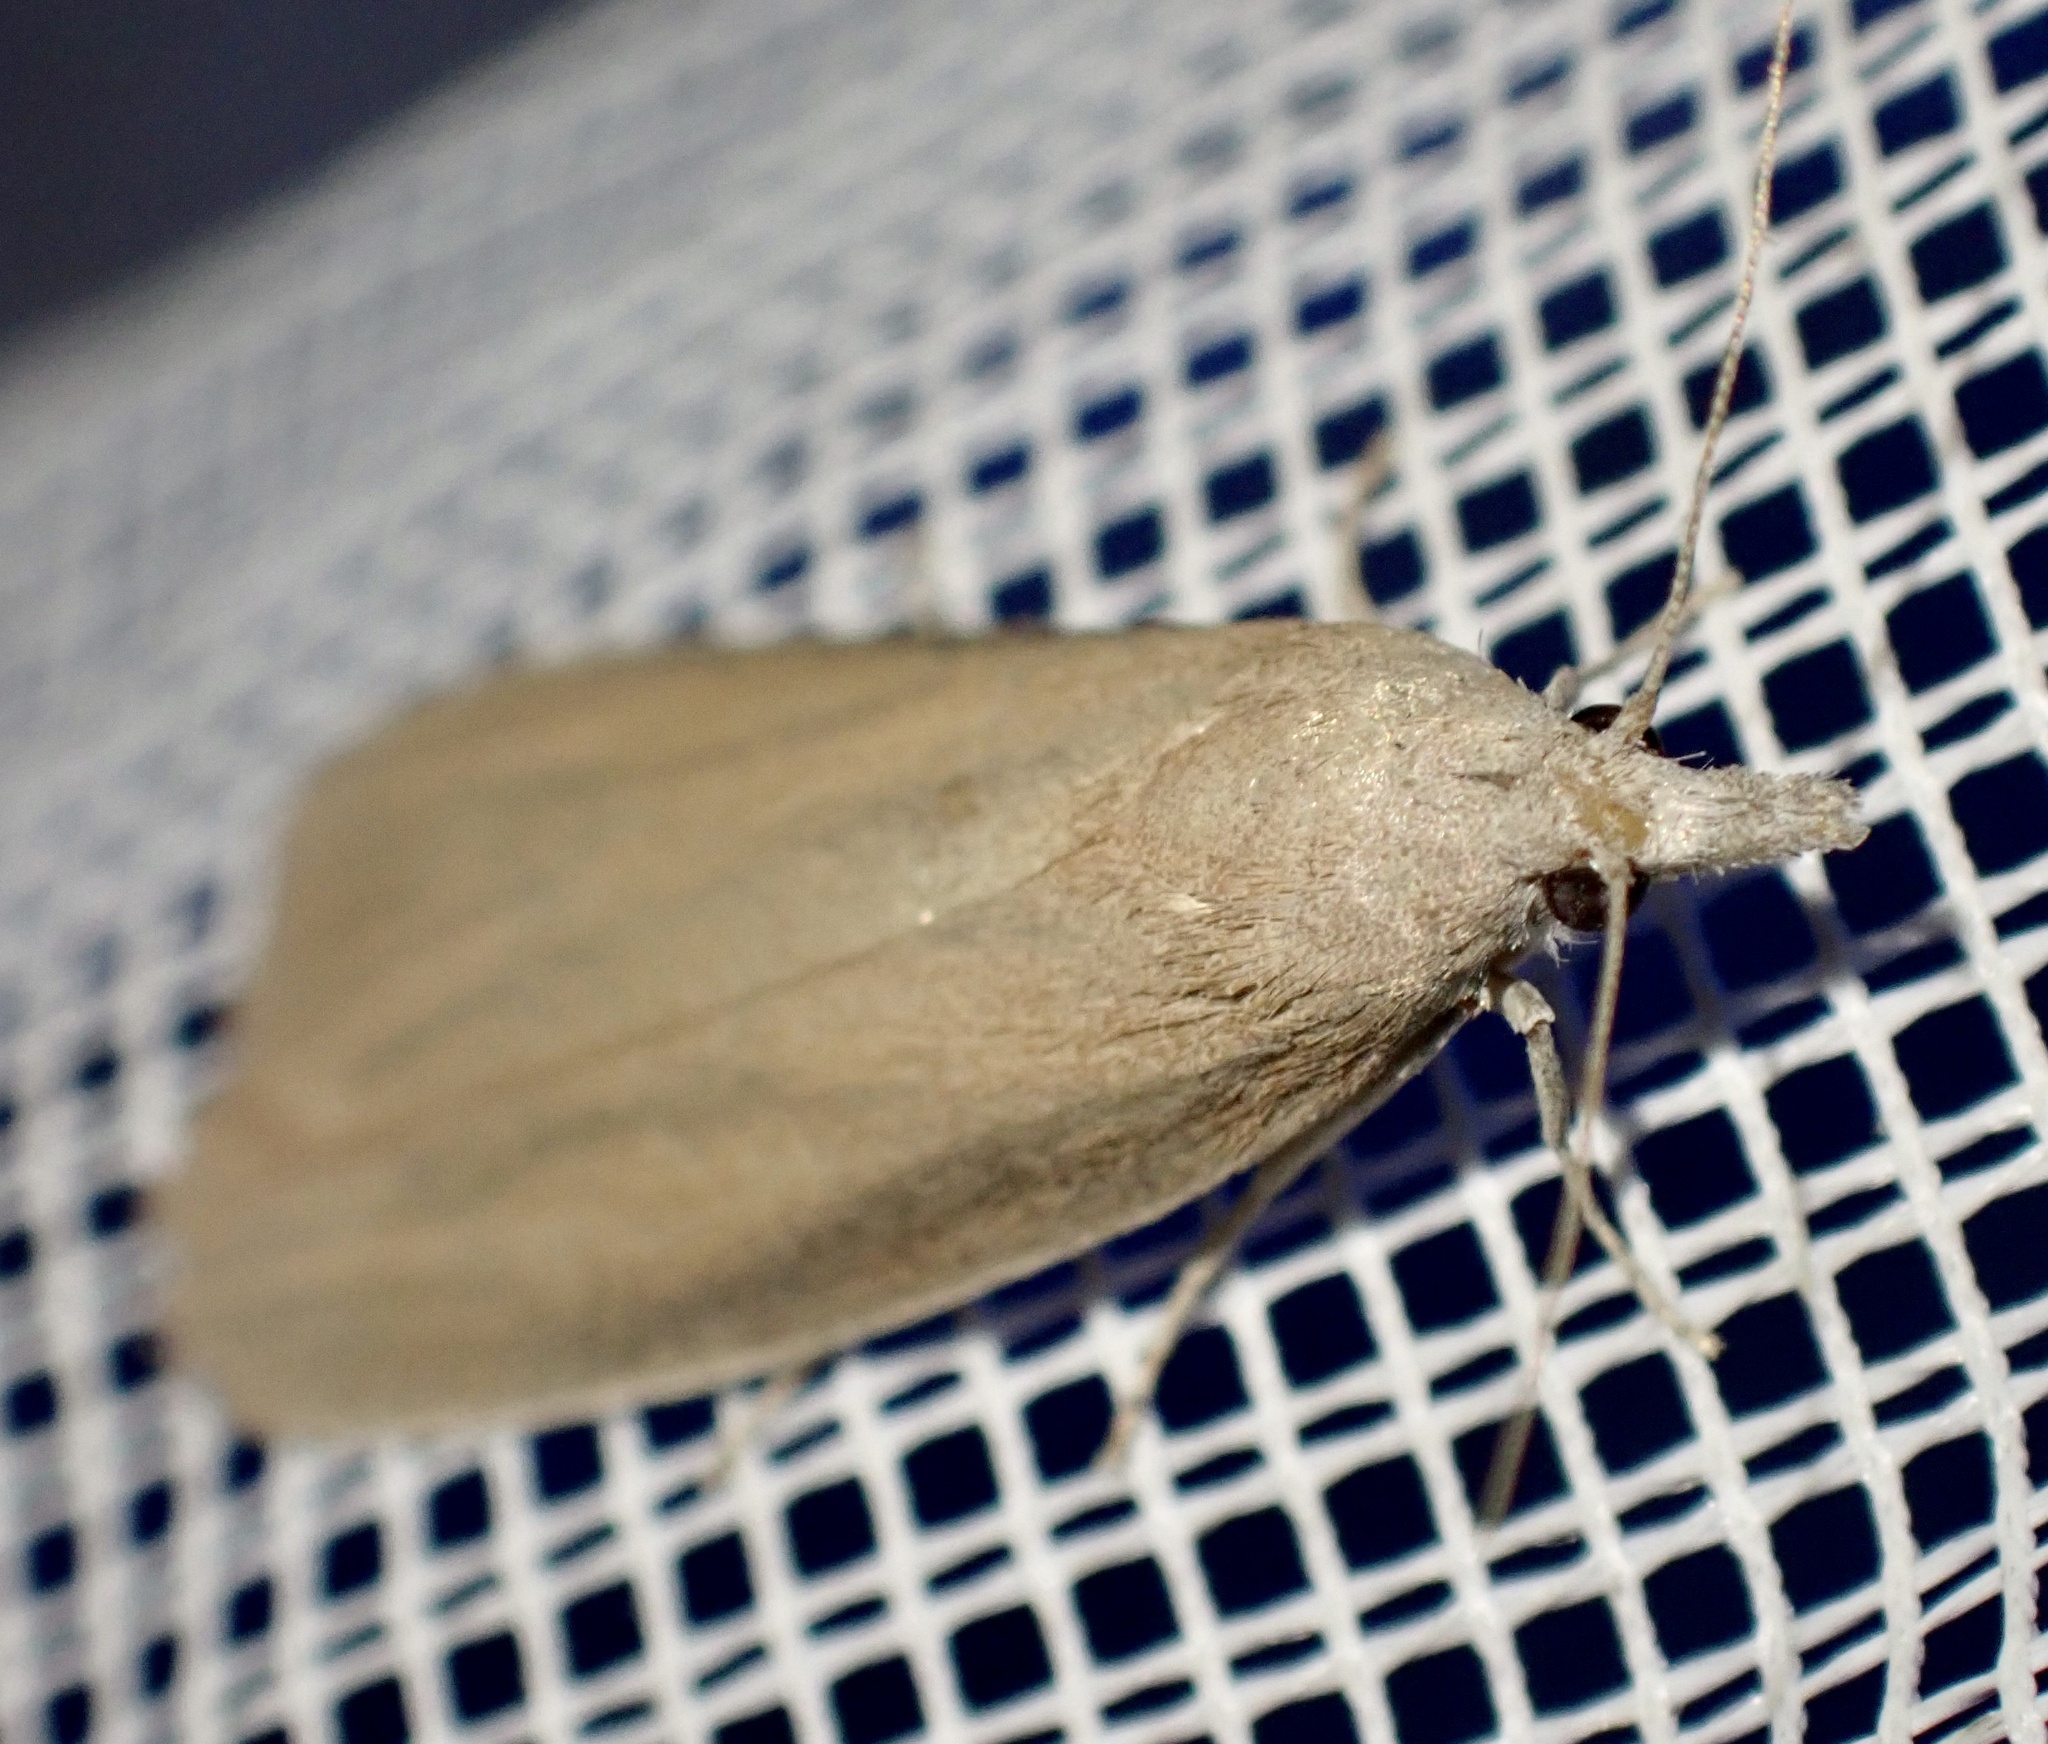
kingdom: Animalia
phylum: Arthropoda
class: Insecta
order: Lepidoptera
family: Pyralidae
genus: Arenipses
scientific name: Arenipses sabella
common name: Large date moth
